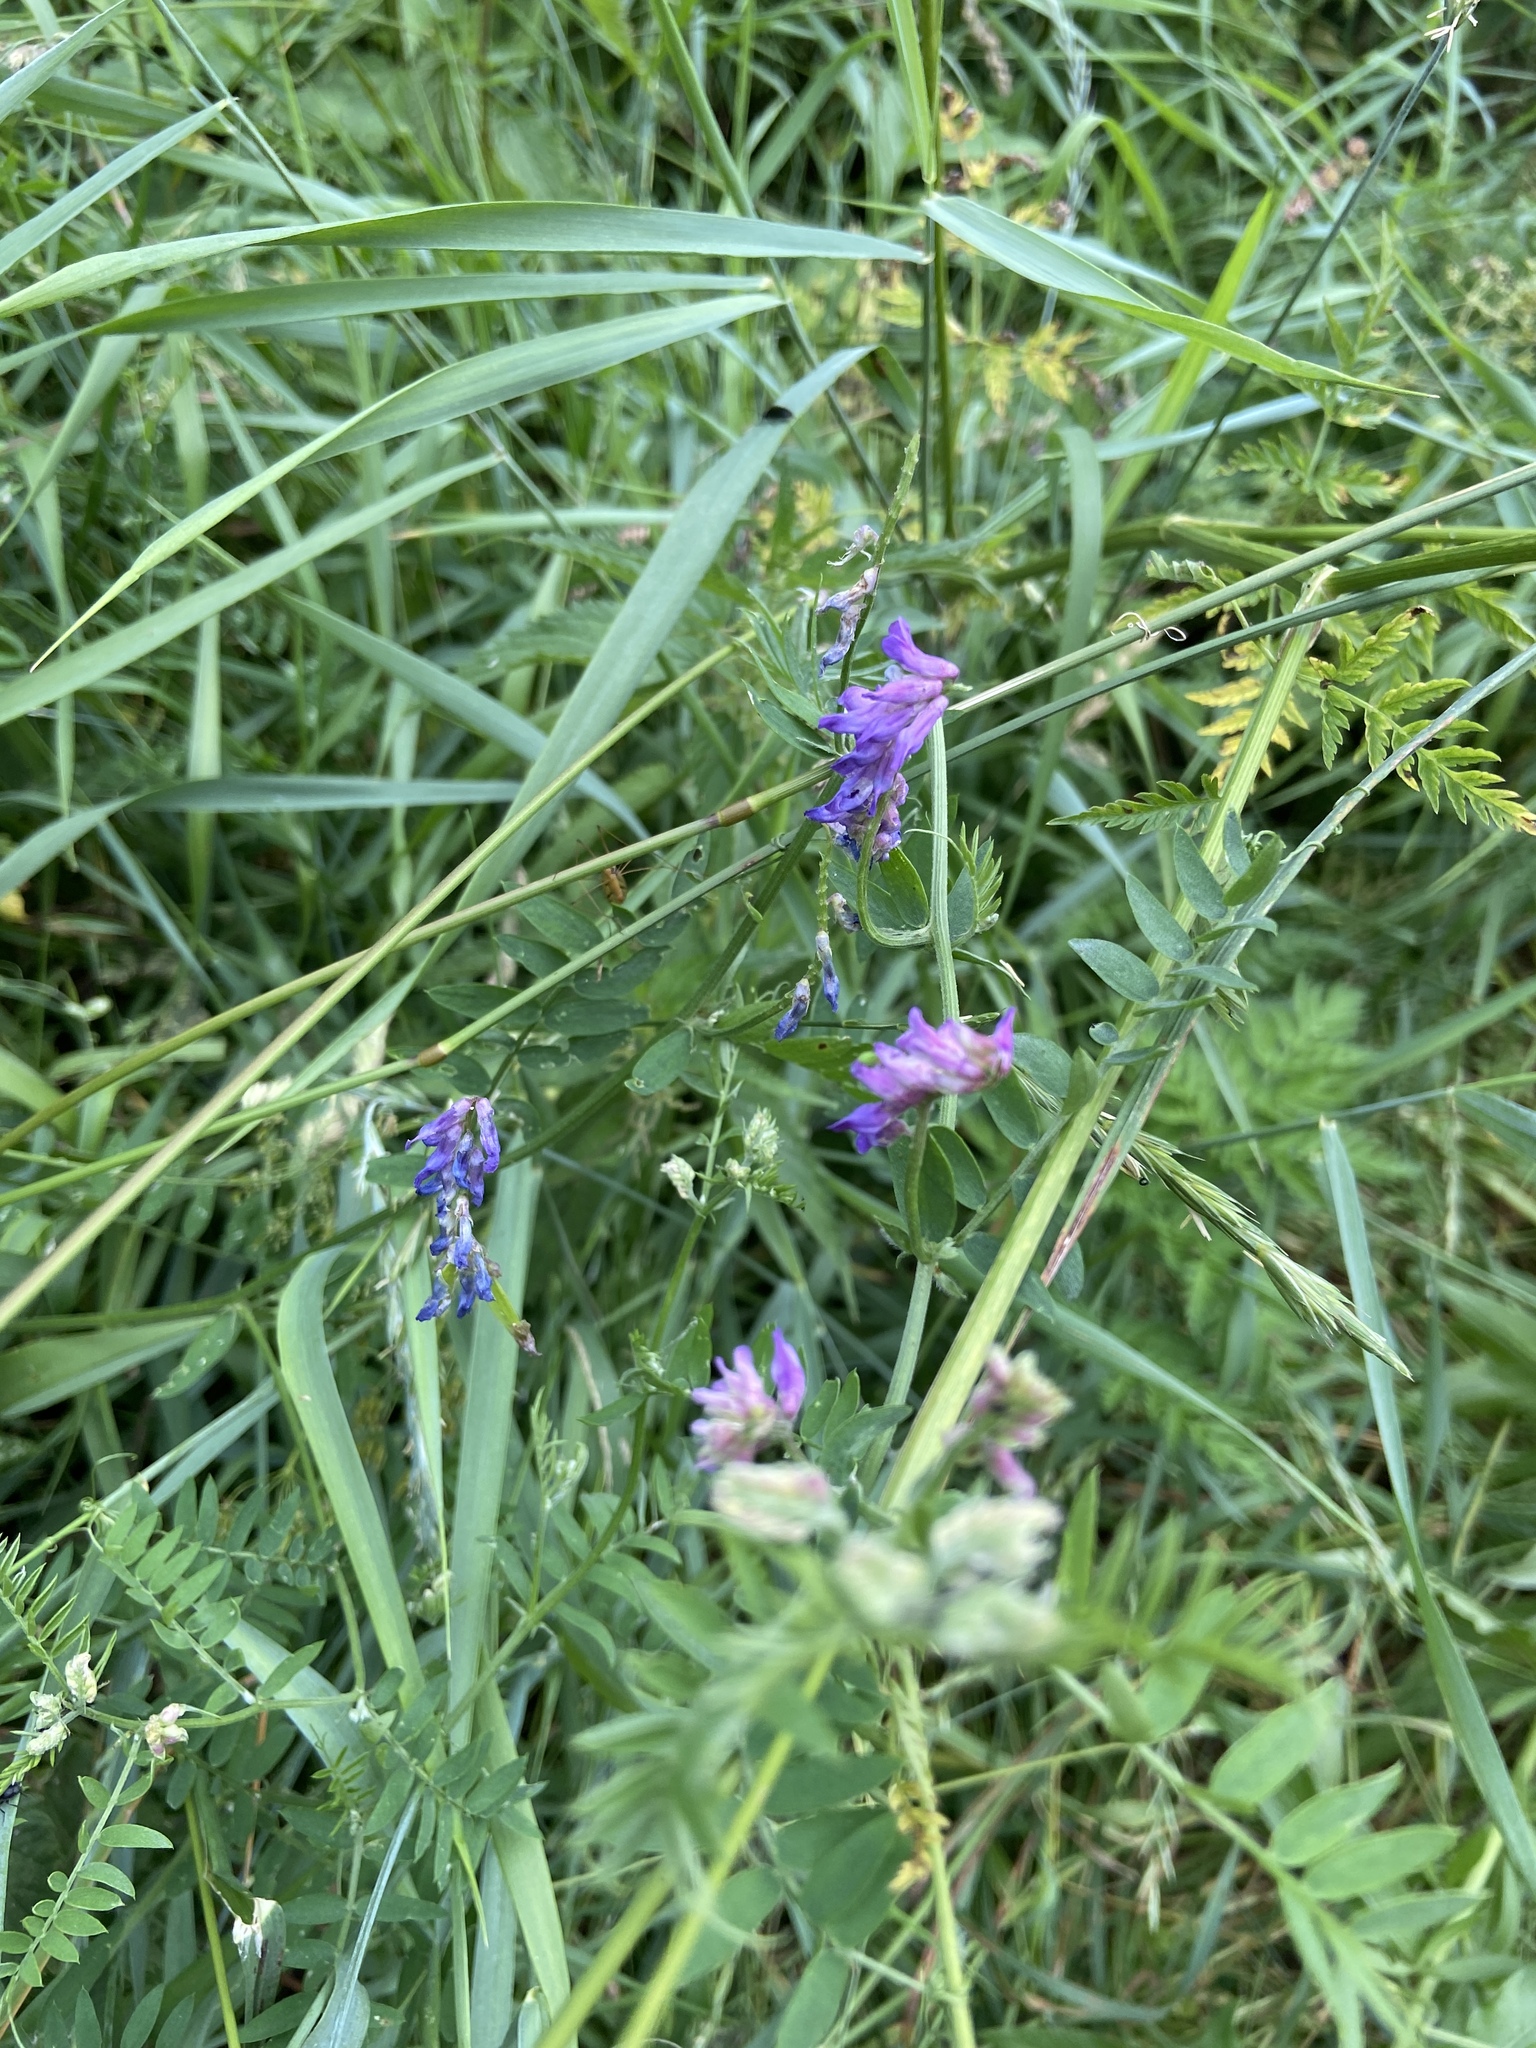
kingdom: Plantae
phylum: Tracheophyta
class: Magnoliopsida
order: Fabales
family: Fabaceae
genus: Vicia
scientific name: Vicia cracca
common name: Bird vetch
